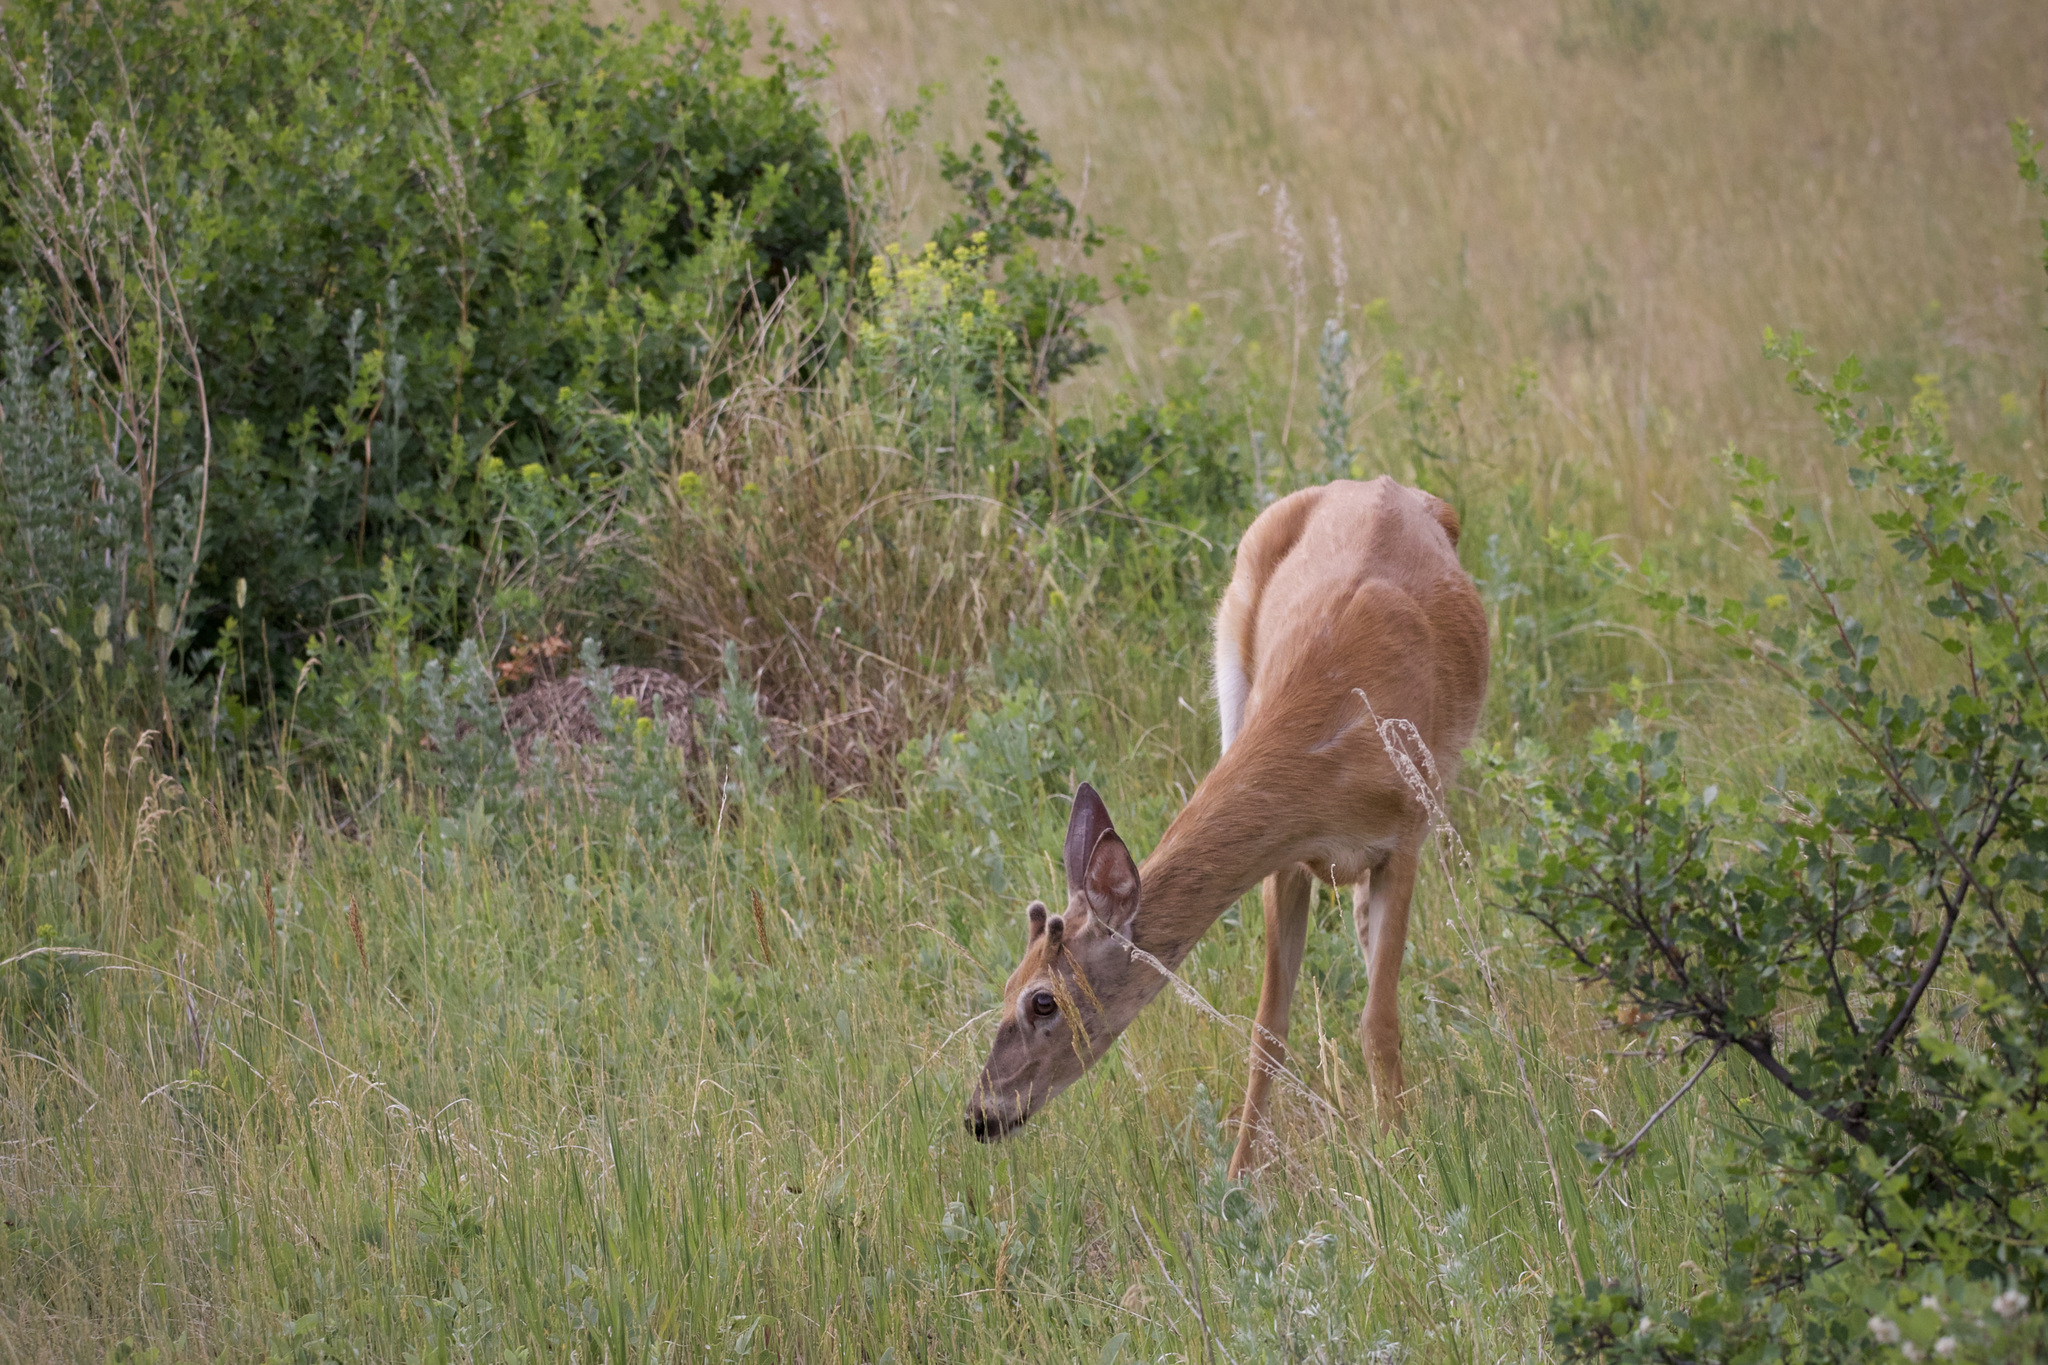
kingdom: Animalia
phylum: Chordata
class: Mammalia
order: Artiodactyla
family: Cervidae
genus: Odocoileus
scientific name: Odocoileus virginianus
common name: White-tailed deer
